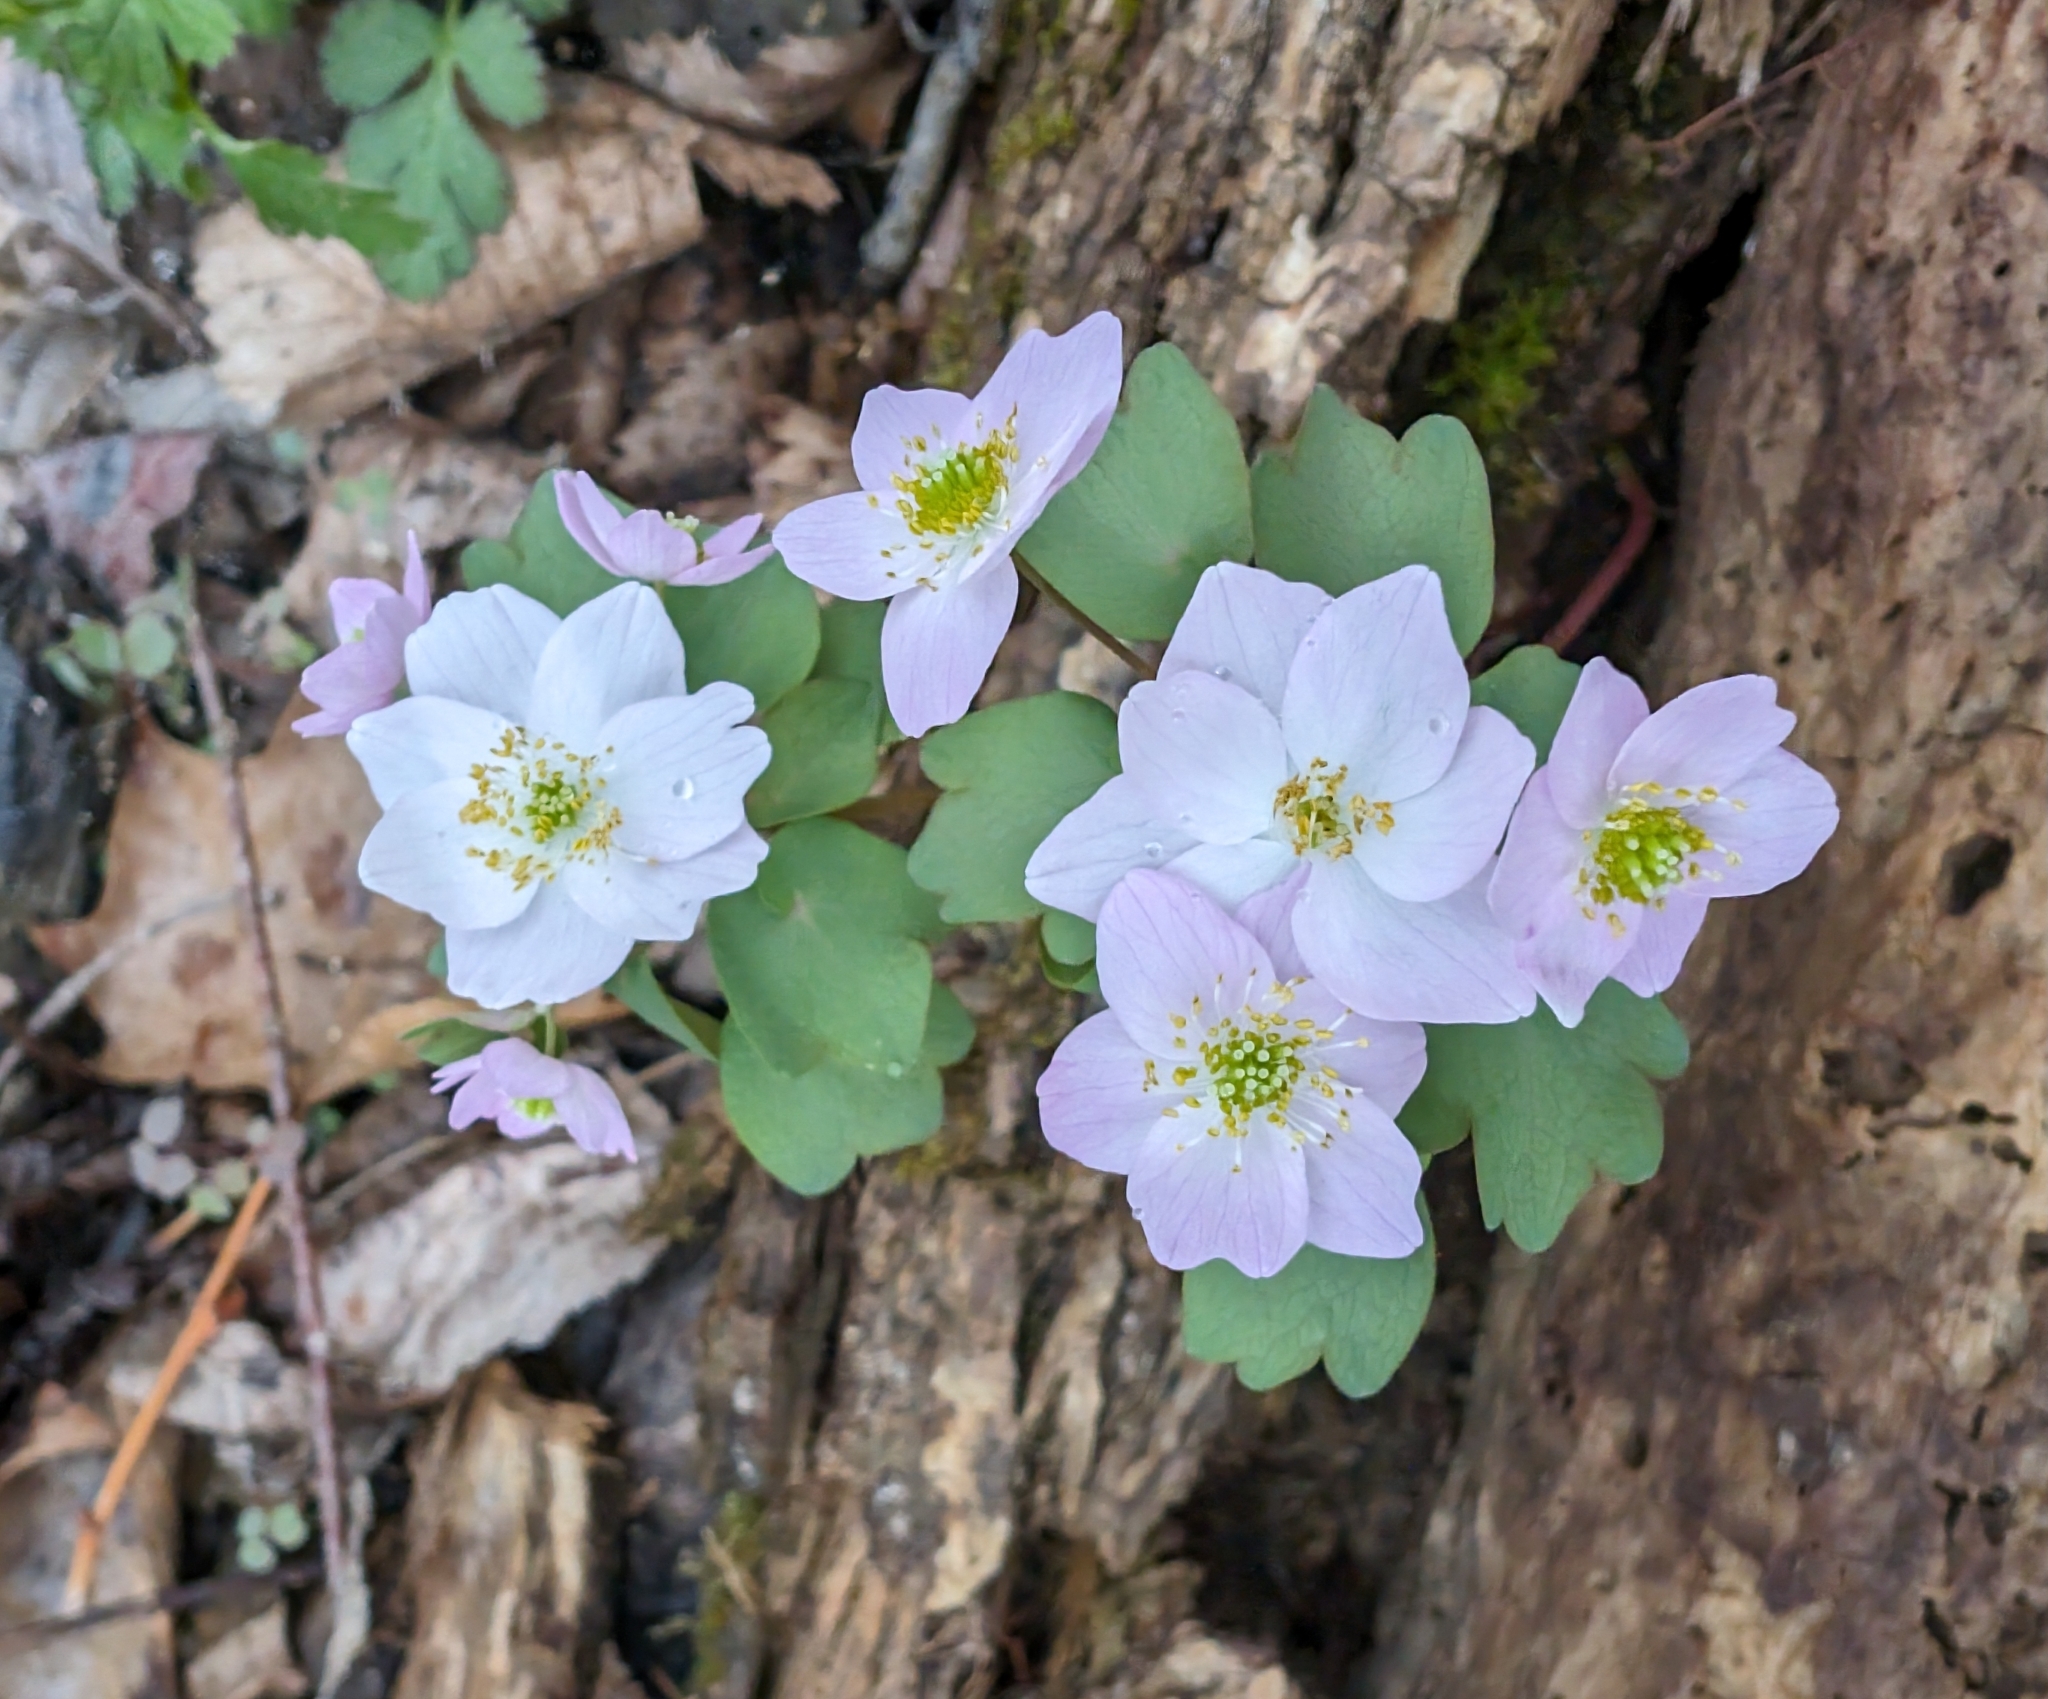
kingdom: Plantae
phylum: Tracheophyta
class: Magnoliopsida
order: Ranunculales
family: Ranunculaceae
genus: Thalictrum
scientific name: Thalictrum thalictroides
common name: Rue-anemone
